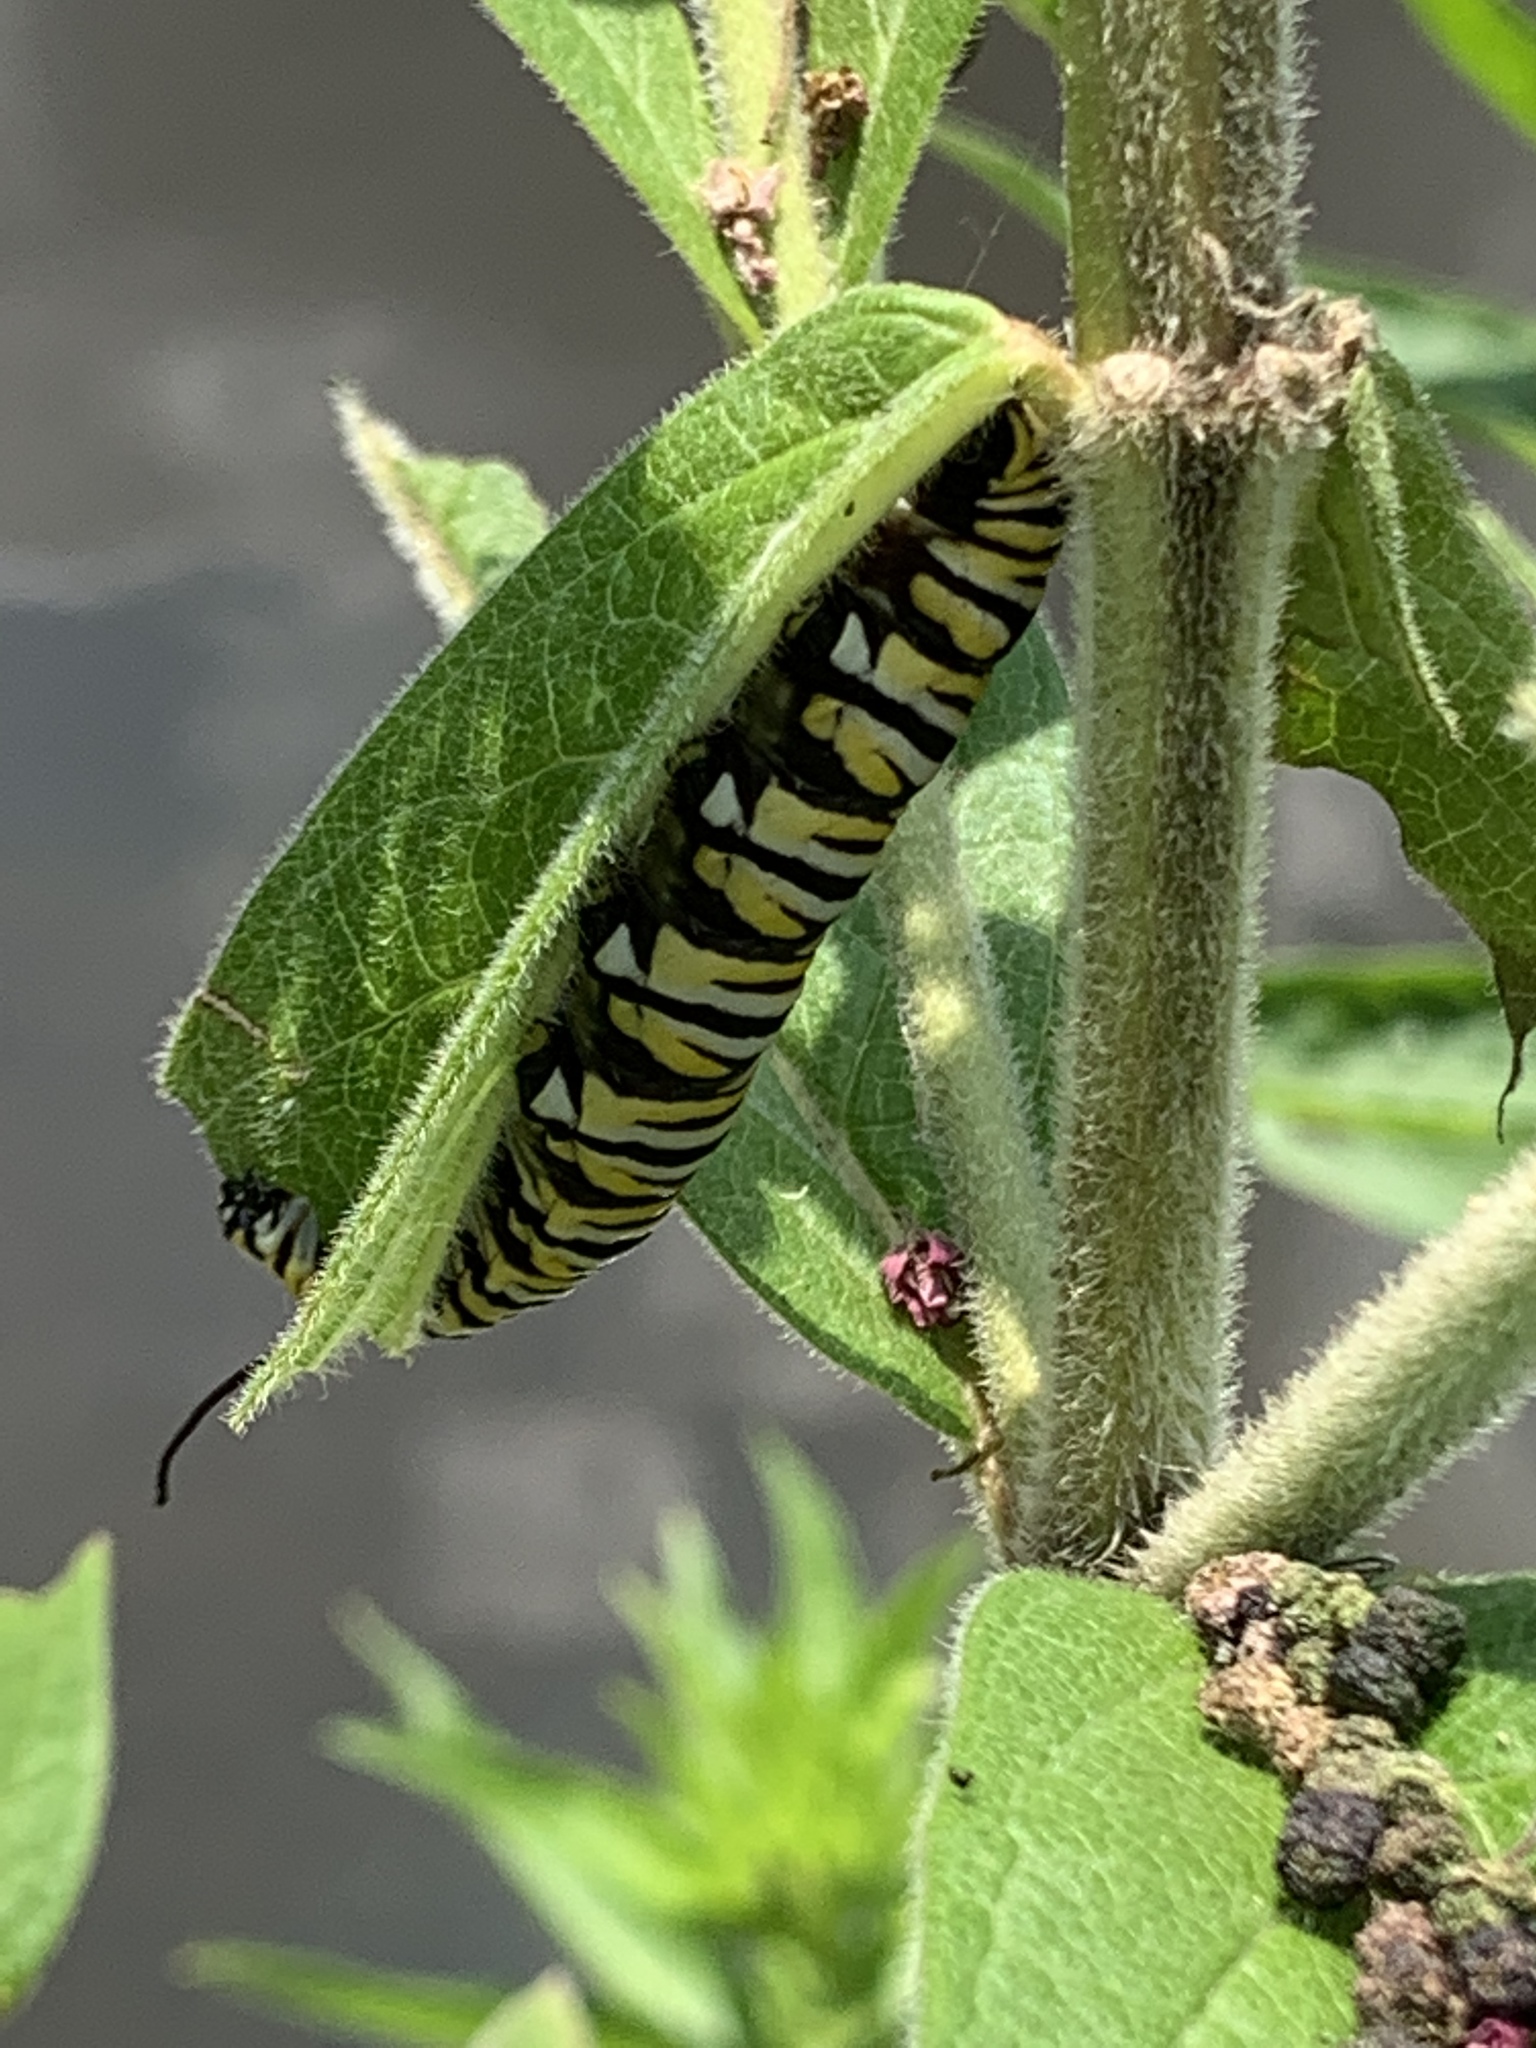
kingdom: Animalia
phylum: Arthropoda
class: Insecta
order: Lepidoptera
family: Nymphalidae
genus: Danaus
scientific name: Danaus plexippus
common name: Monarch
